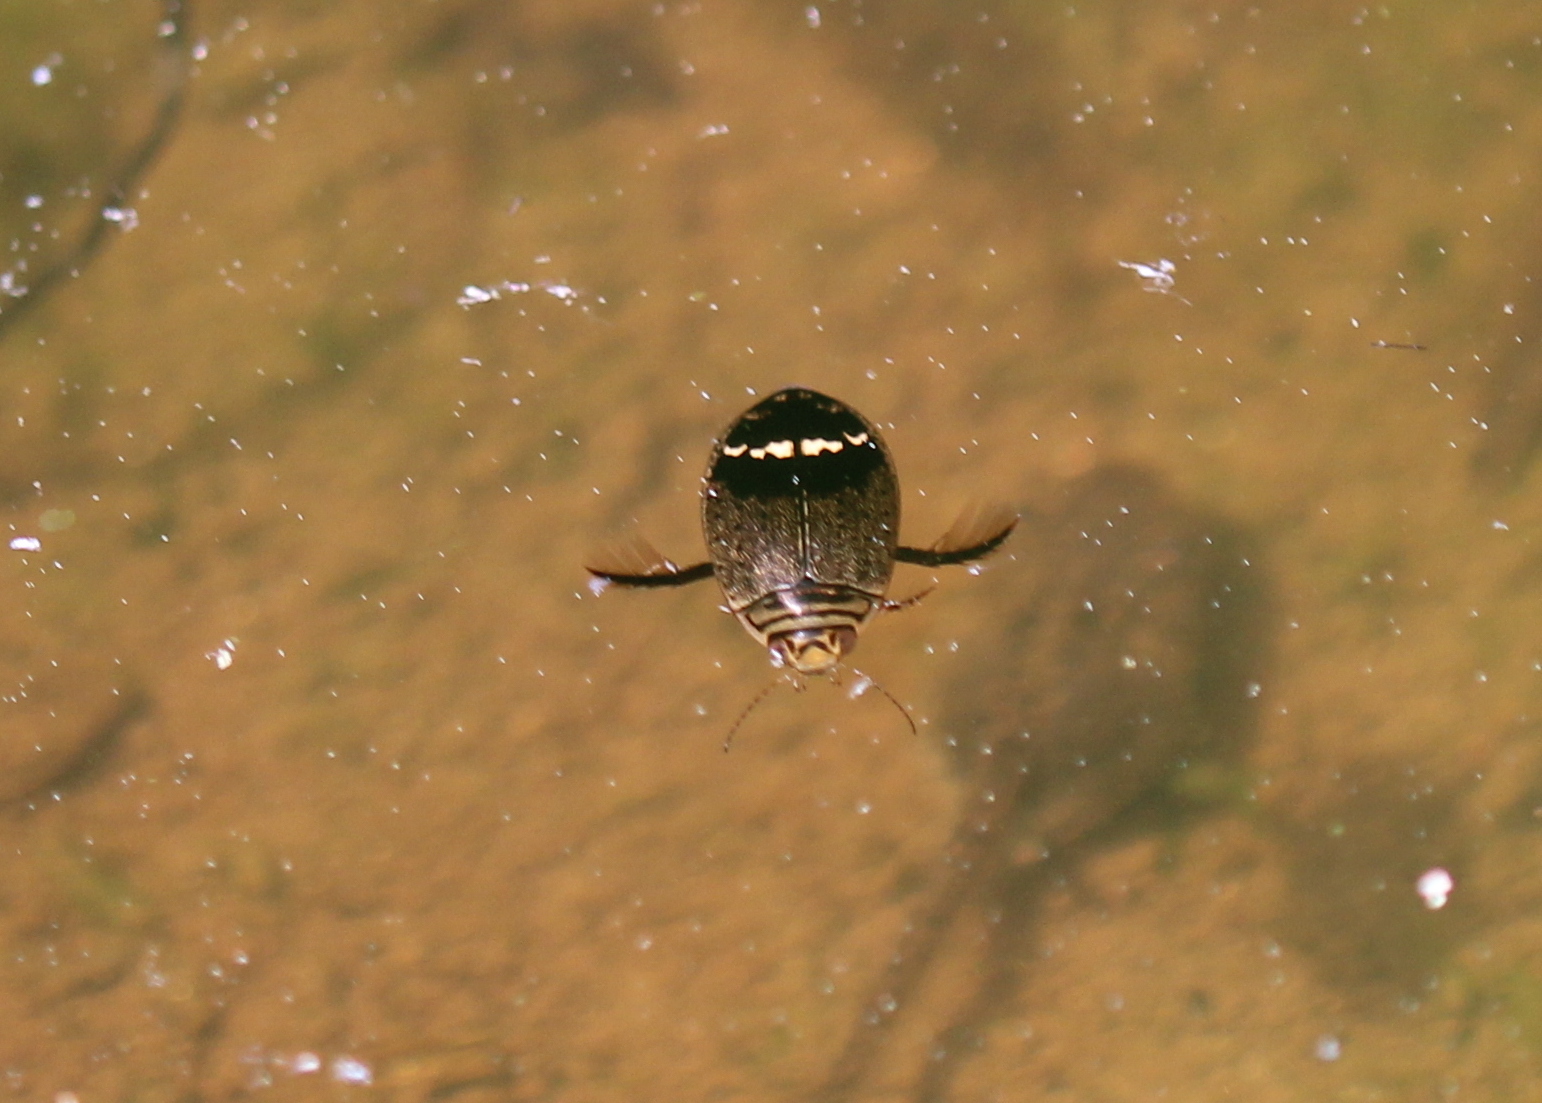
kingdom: Animalia
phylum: Arthropoda
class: Insecta
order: Coleoptera
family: Dytiscidae
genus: Acilius
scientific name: Acilius mediatus
